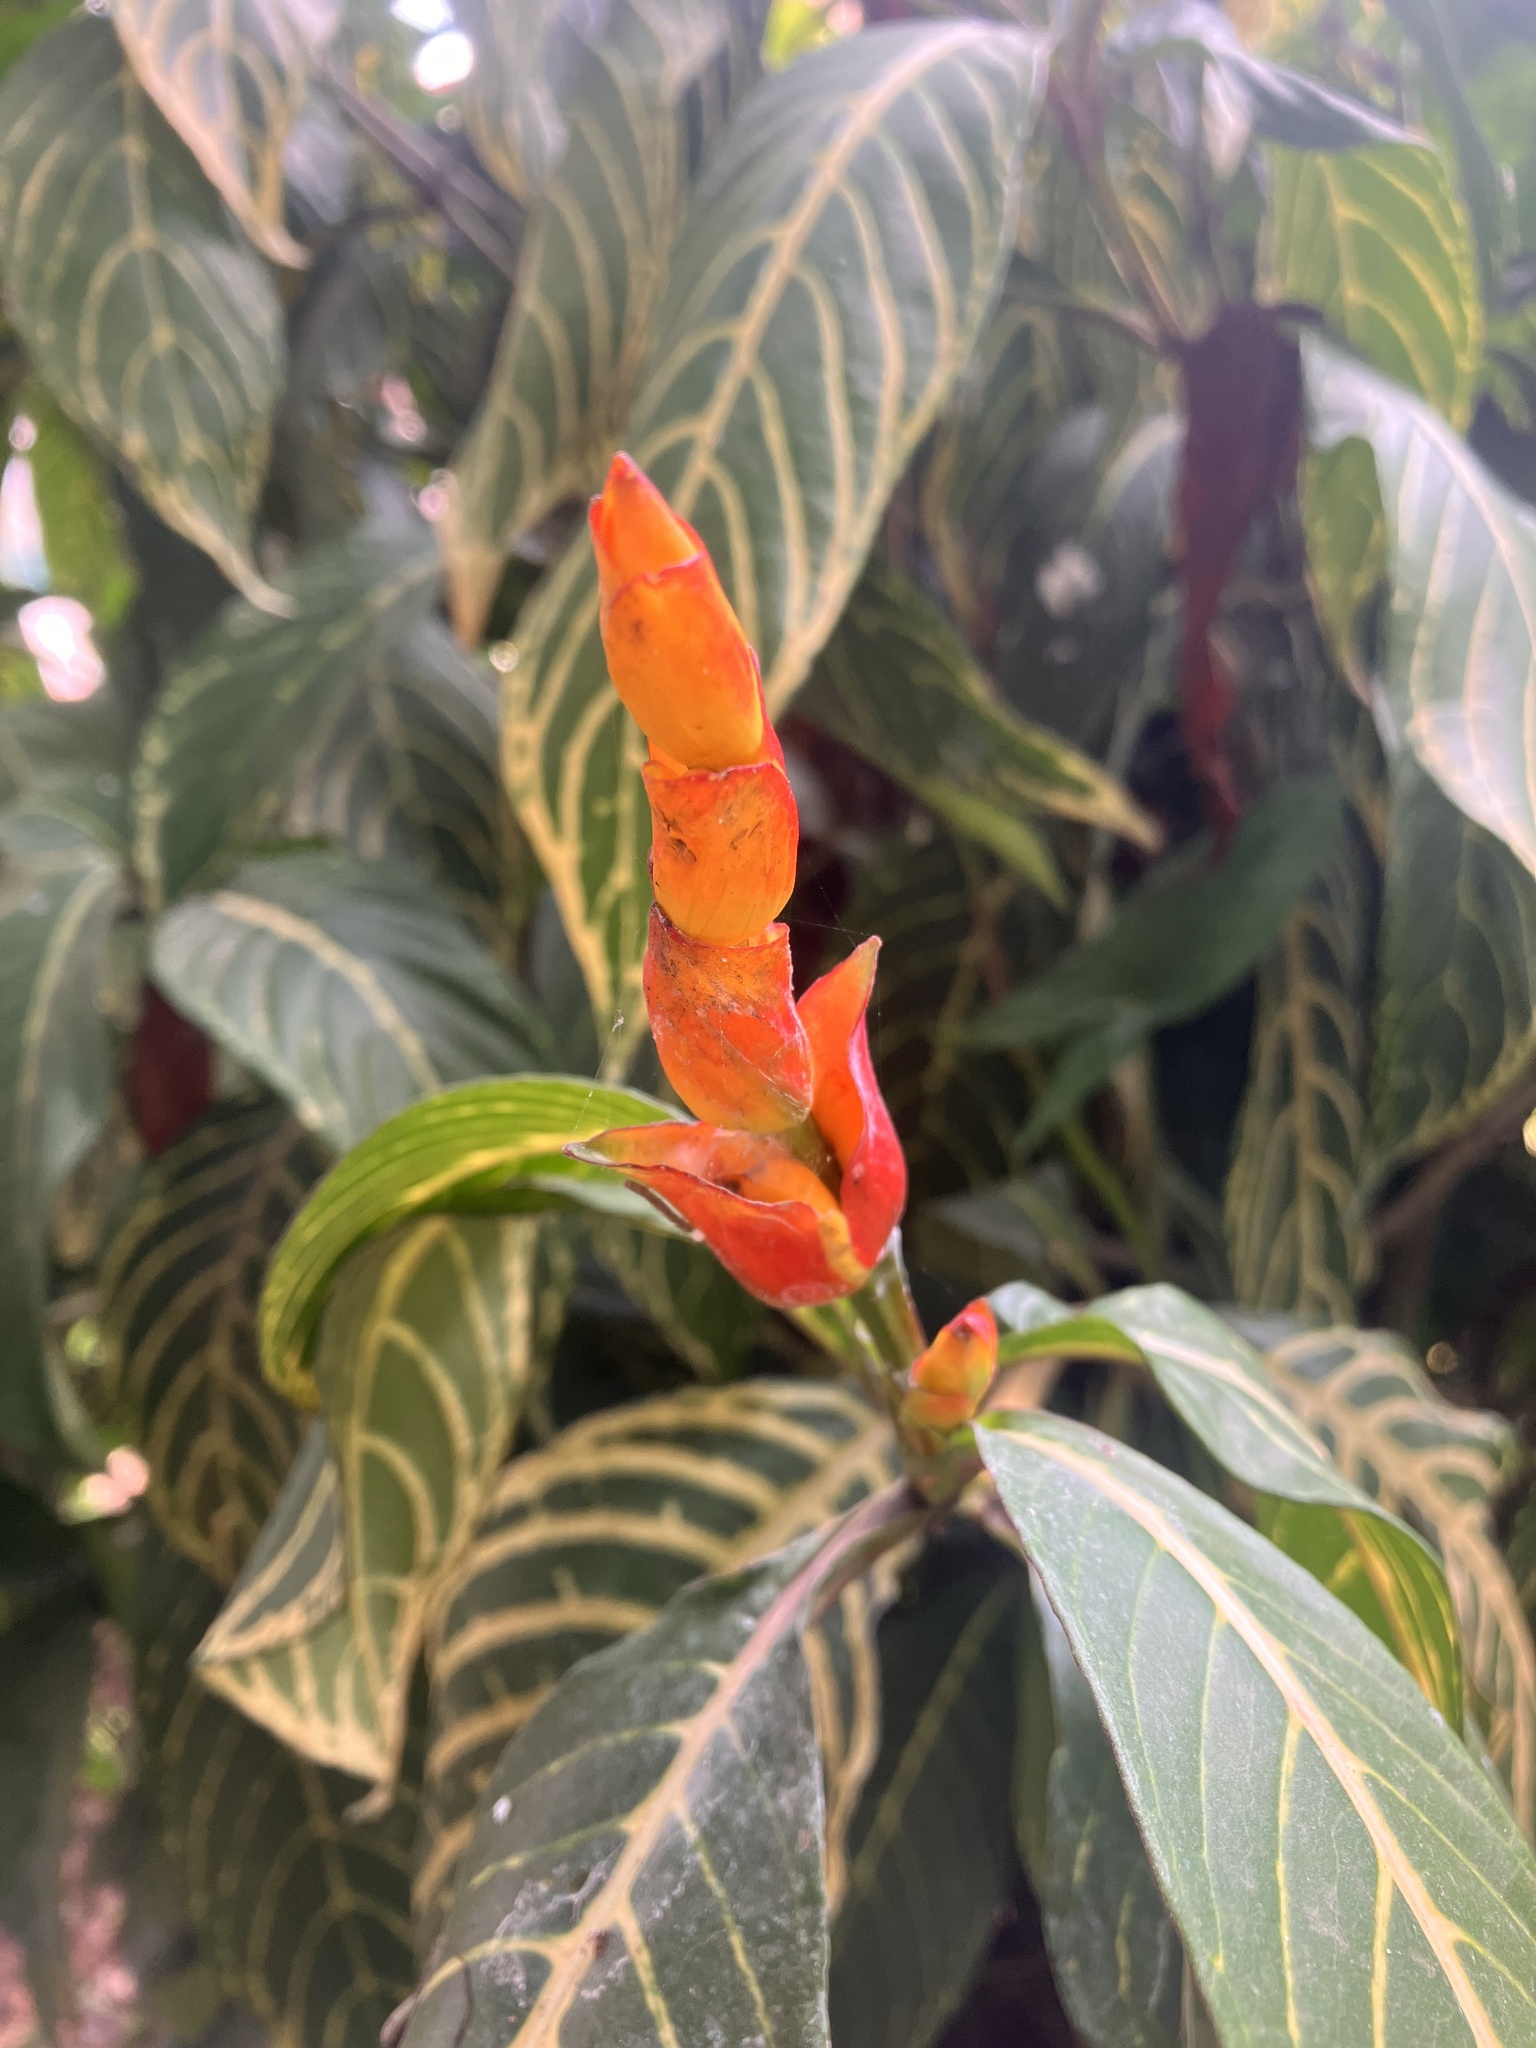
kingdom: Plantae
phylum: Tracheophyta
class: Magnoliopsida
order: Lamiales
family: Acanthaceae
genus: Sanchezia
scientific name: Sanchezia oblonga
